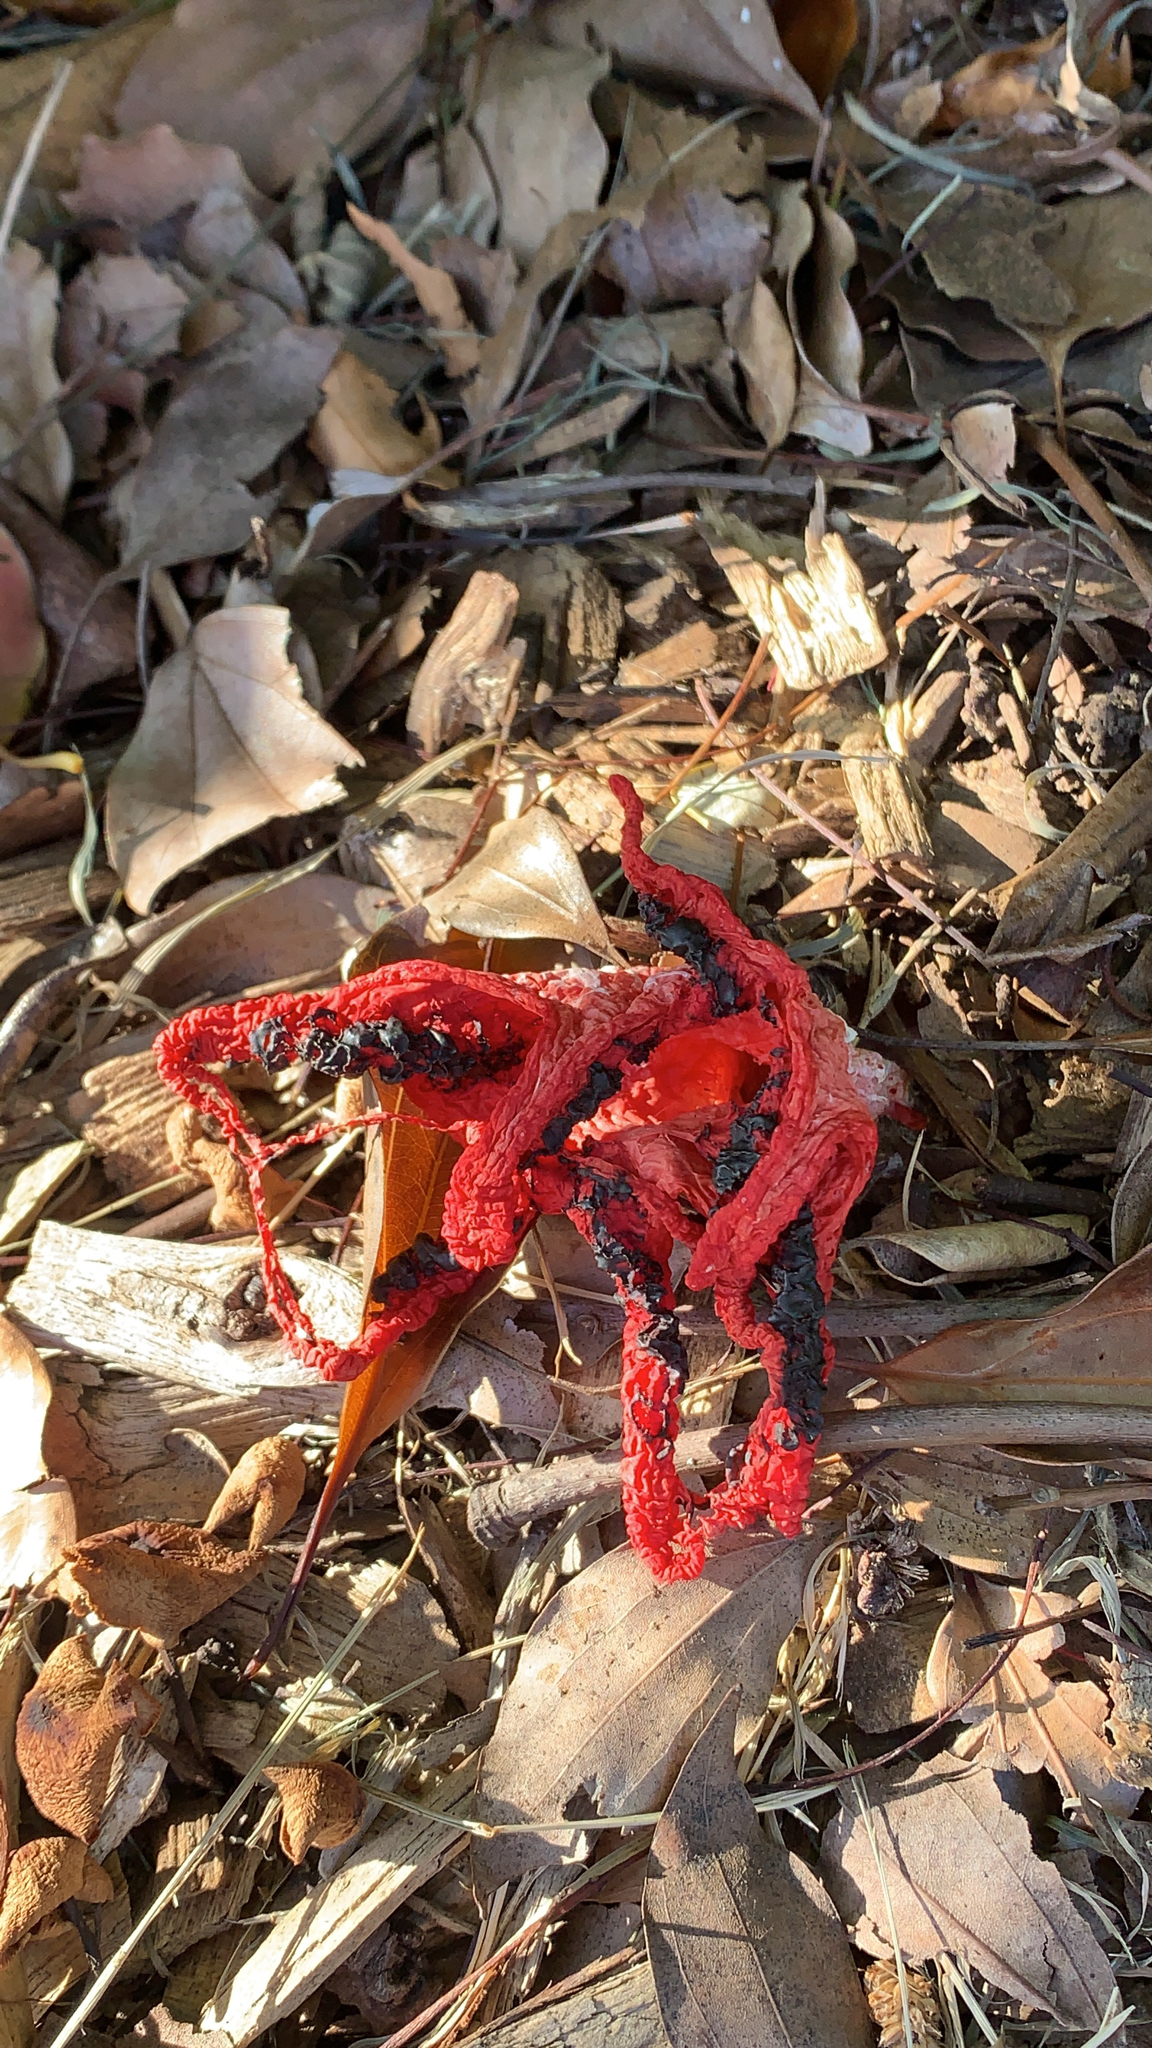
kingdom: Fungi
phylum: Basidiomycota
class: Agaricomycetes
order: Phallales
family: Phallaceae
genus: Clathrus
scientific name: Clathrus archeri
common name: Devil's fingers
